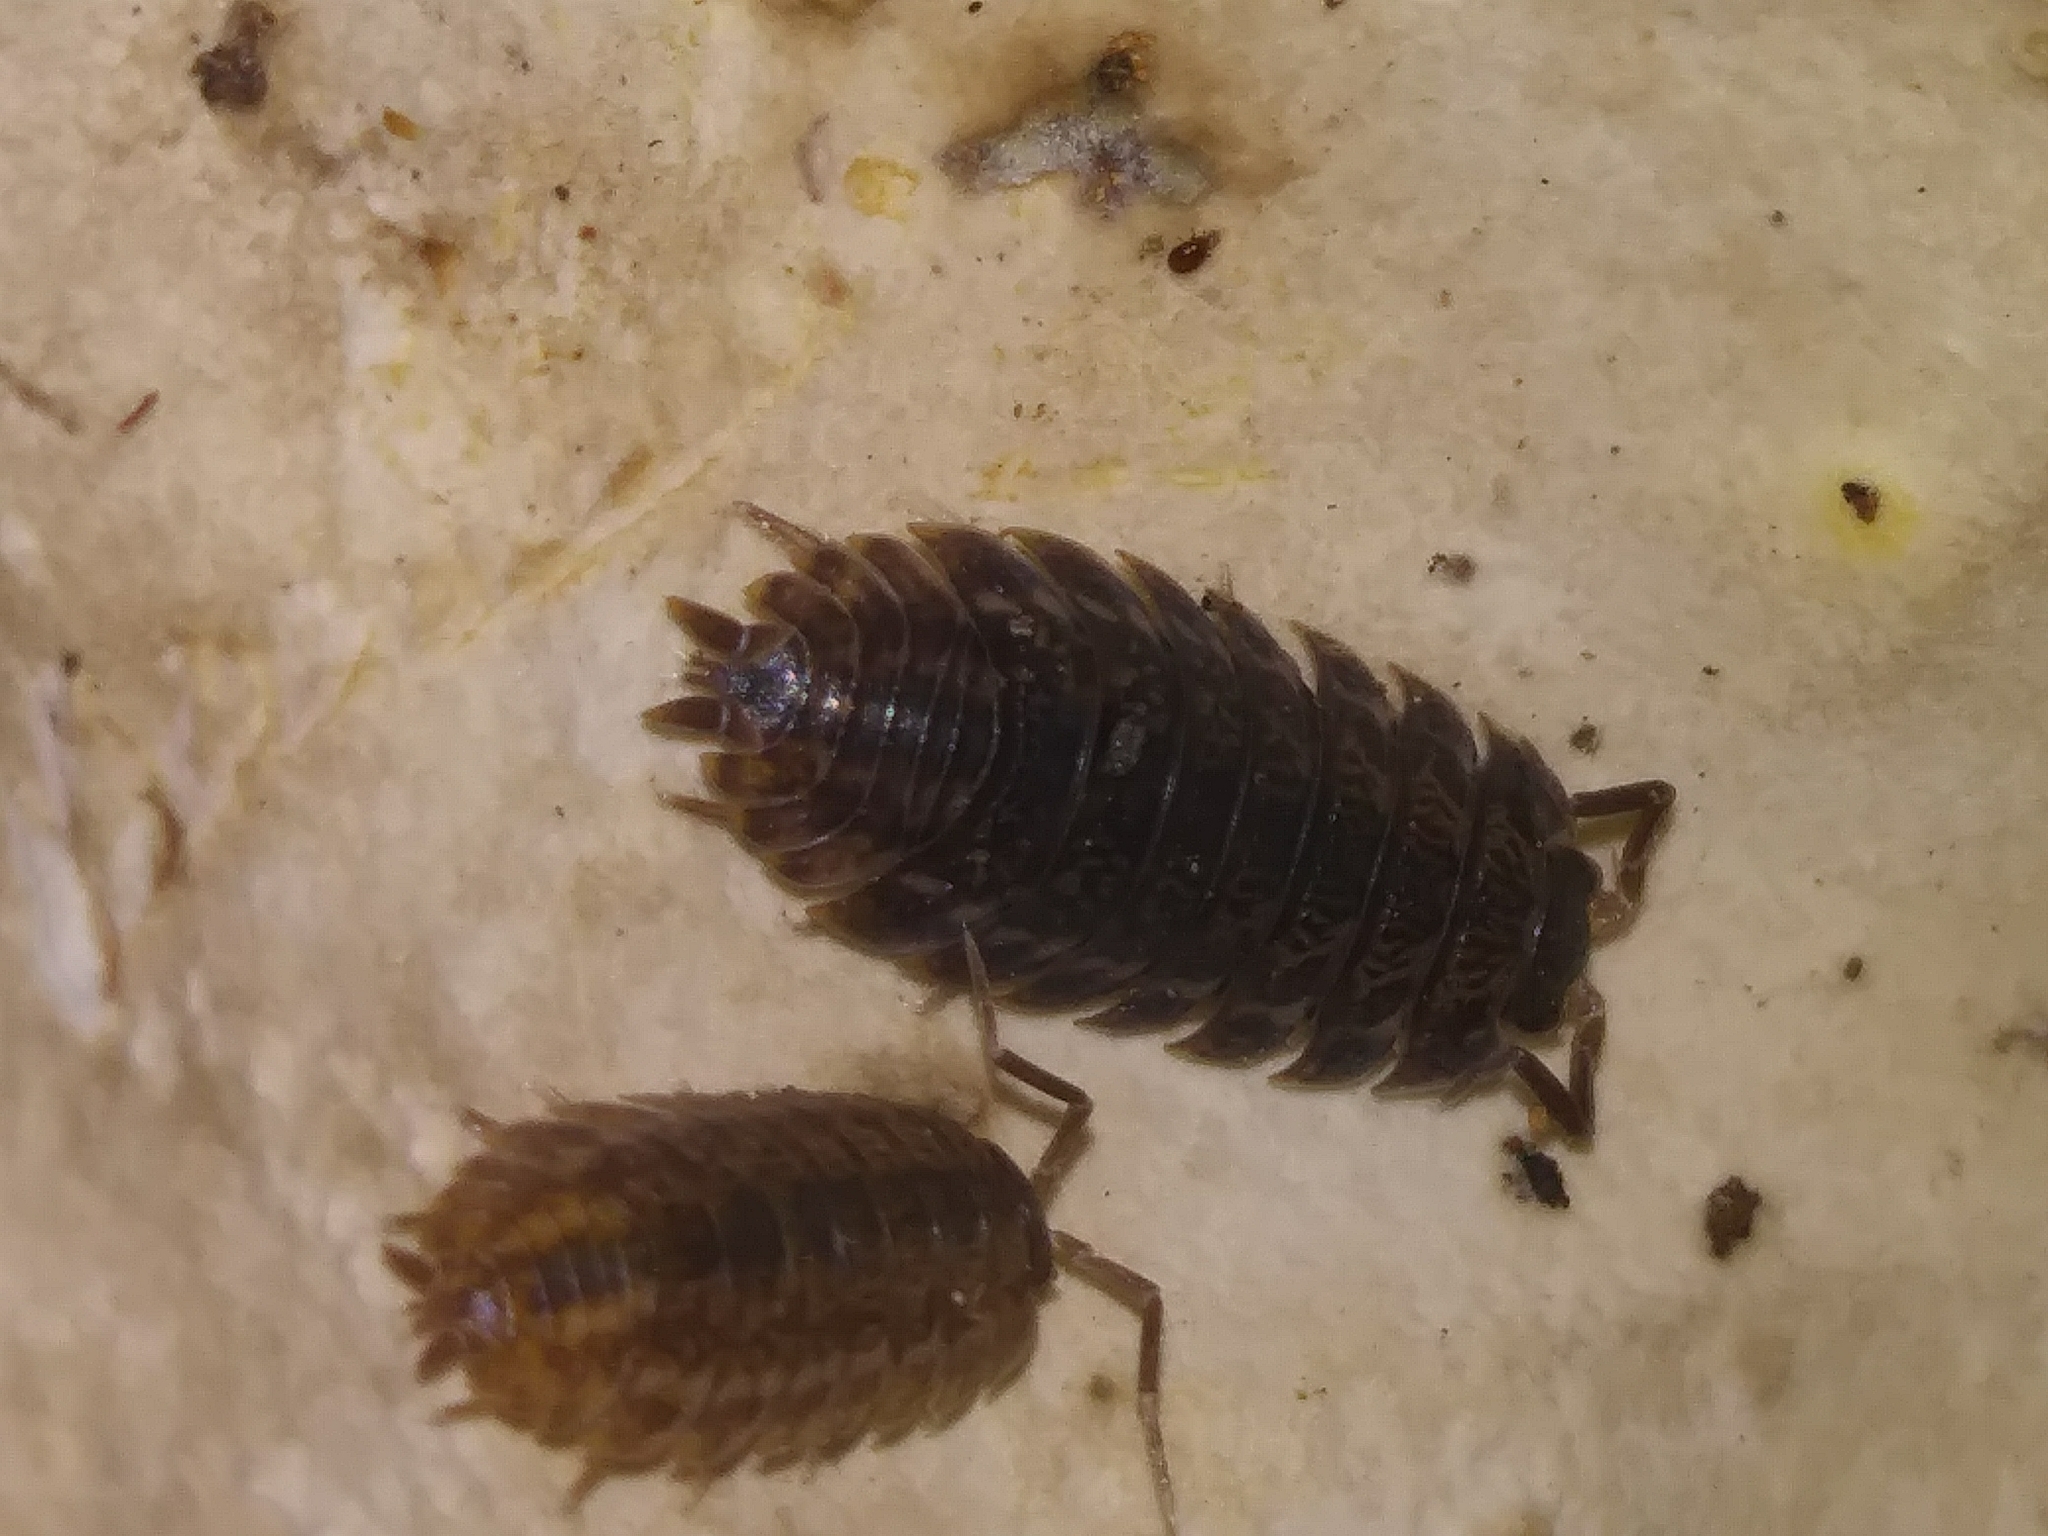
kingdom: Animalia
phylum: Arthropoda
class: Malacostraca
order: Isopoda
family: Trachelipodidae
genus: Trachelipus
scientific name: Trachelipus rathkii
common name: Isopod
